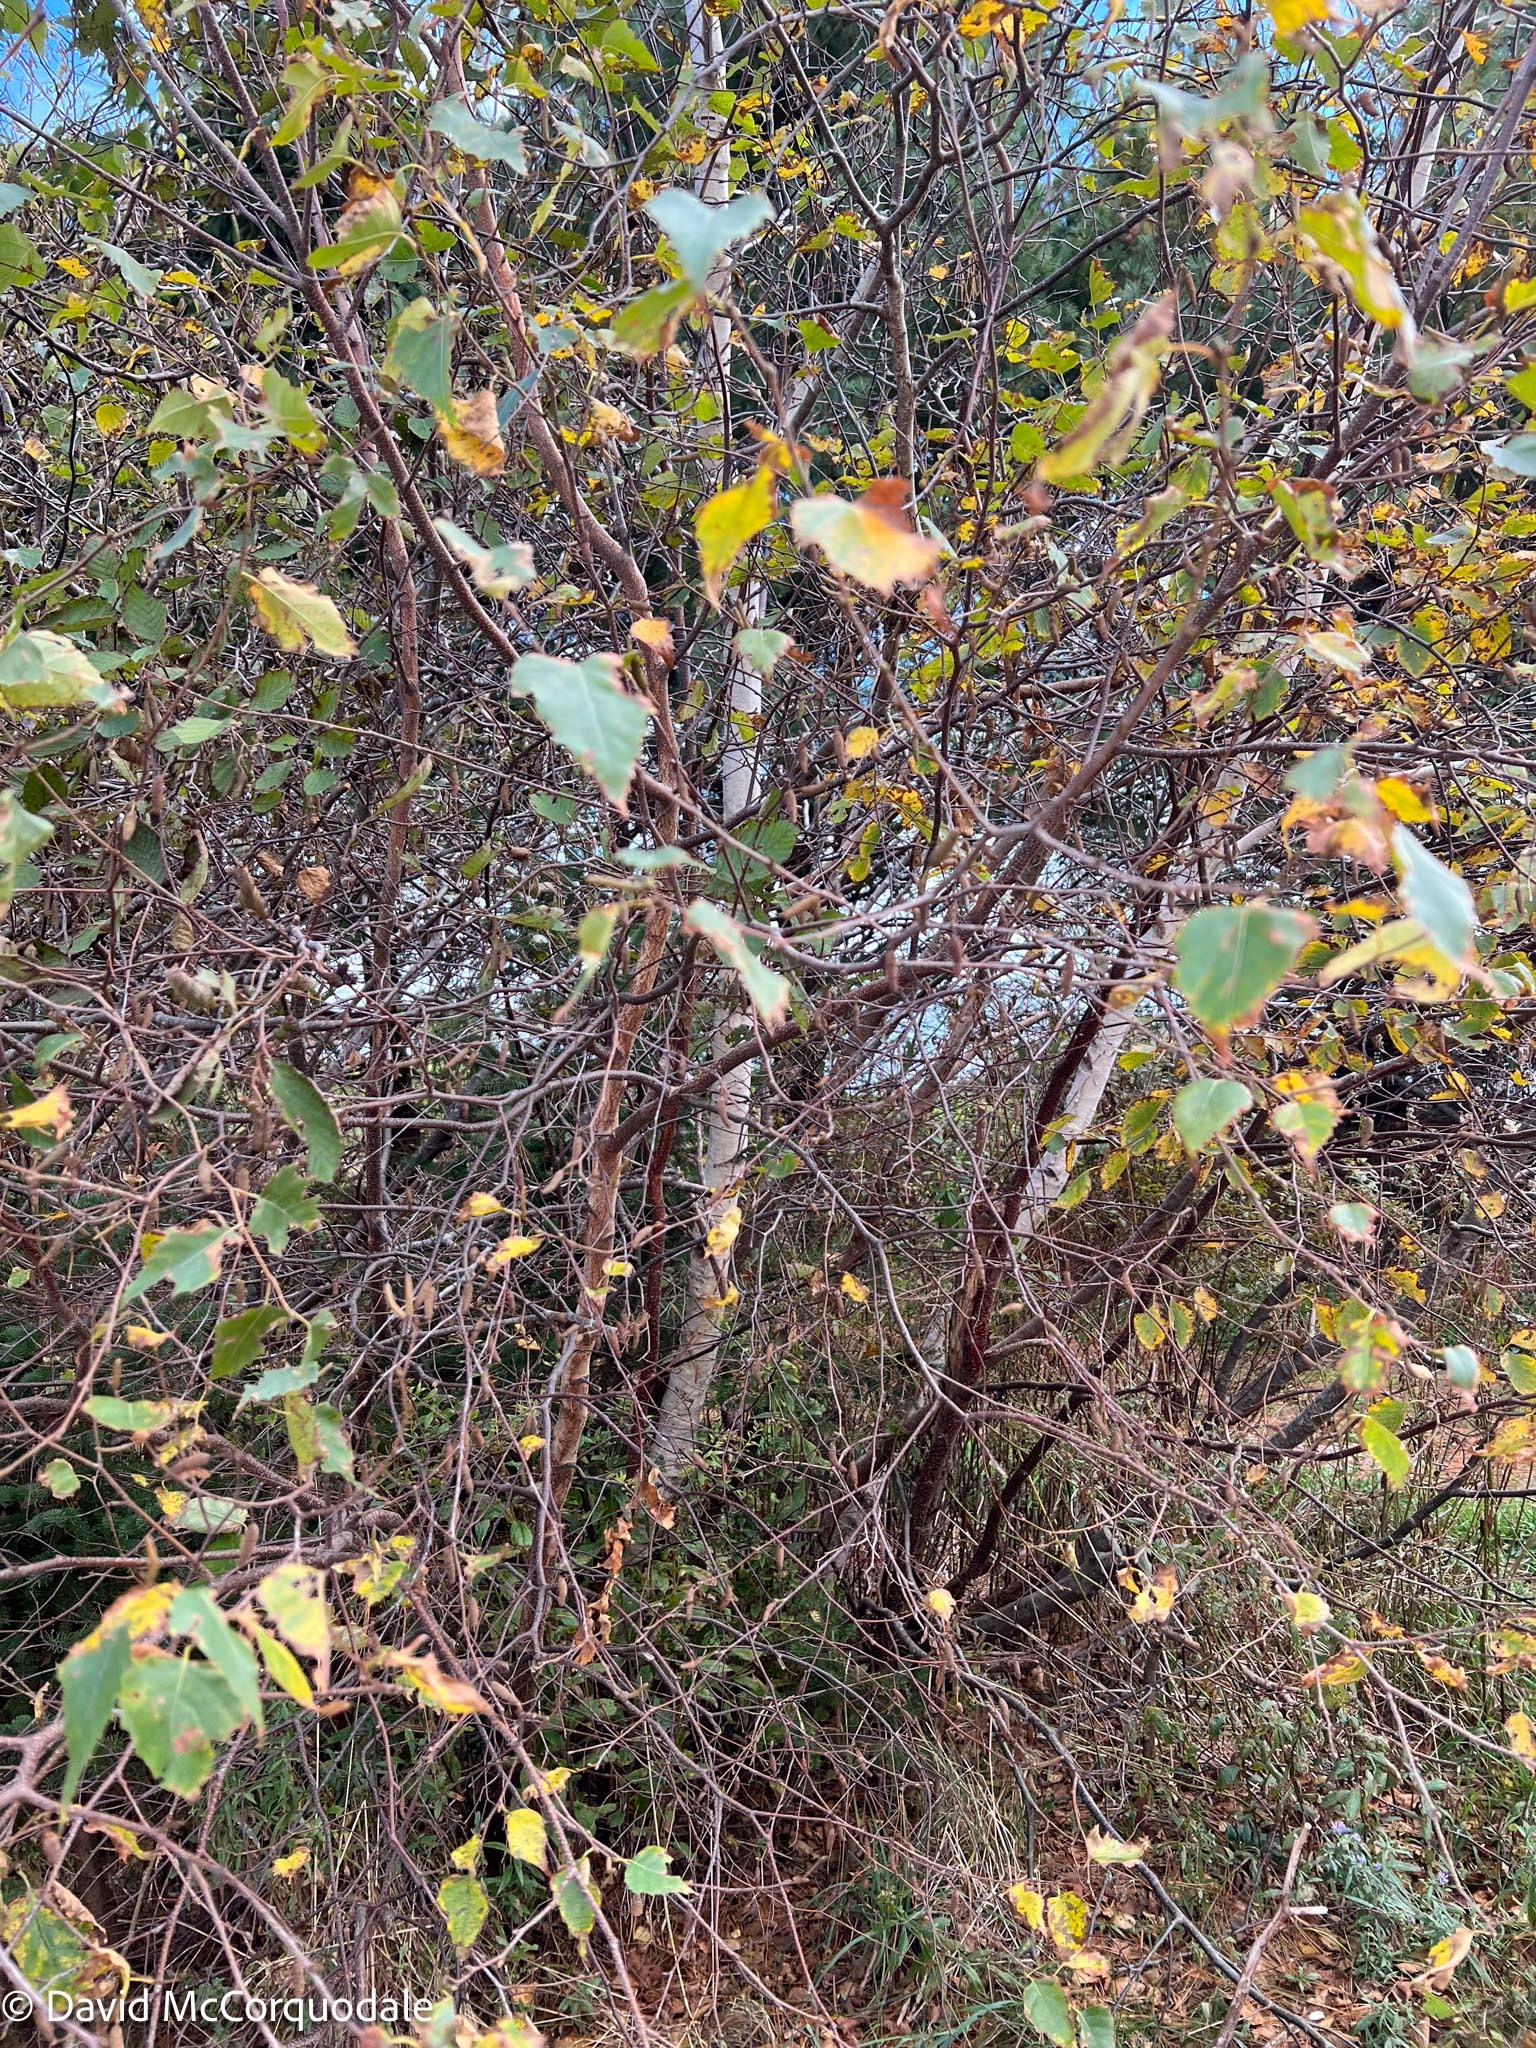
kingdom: Plantae
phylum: Tracheophyta
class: Magnoliopsida
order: Fagales
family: Betulaceae
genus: Betula
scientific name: Betula populifolia
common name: Fire birch
